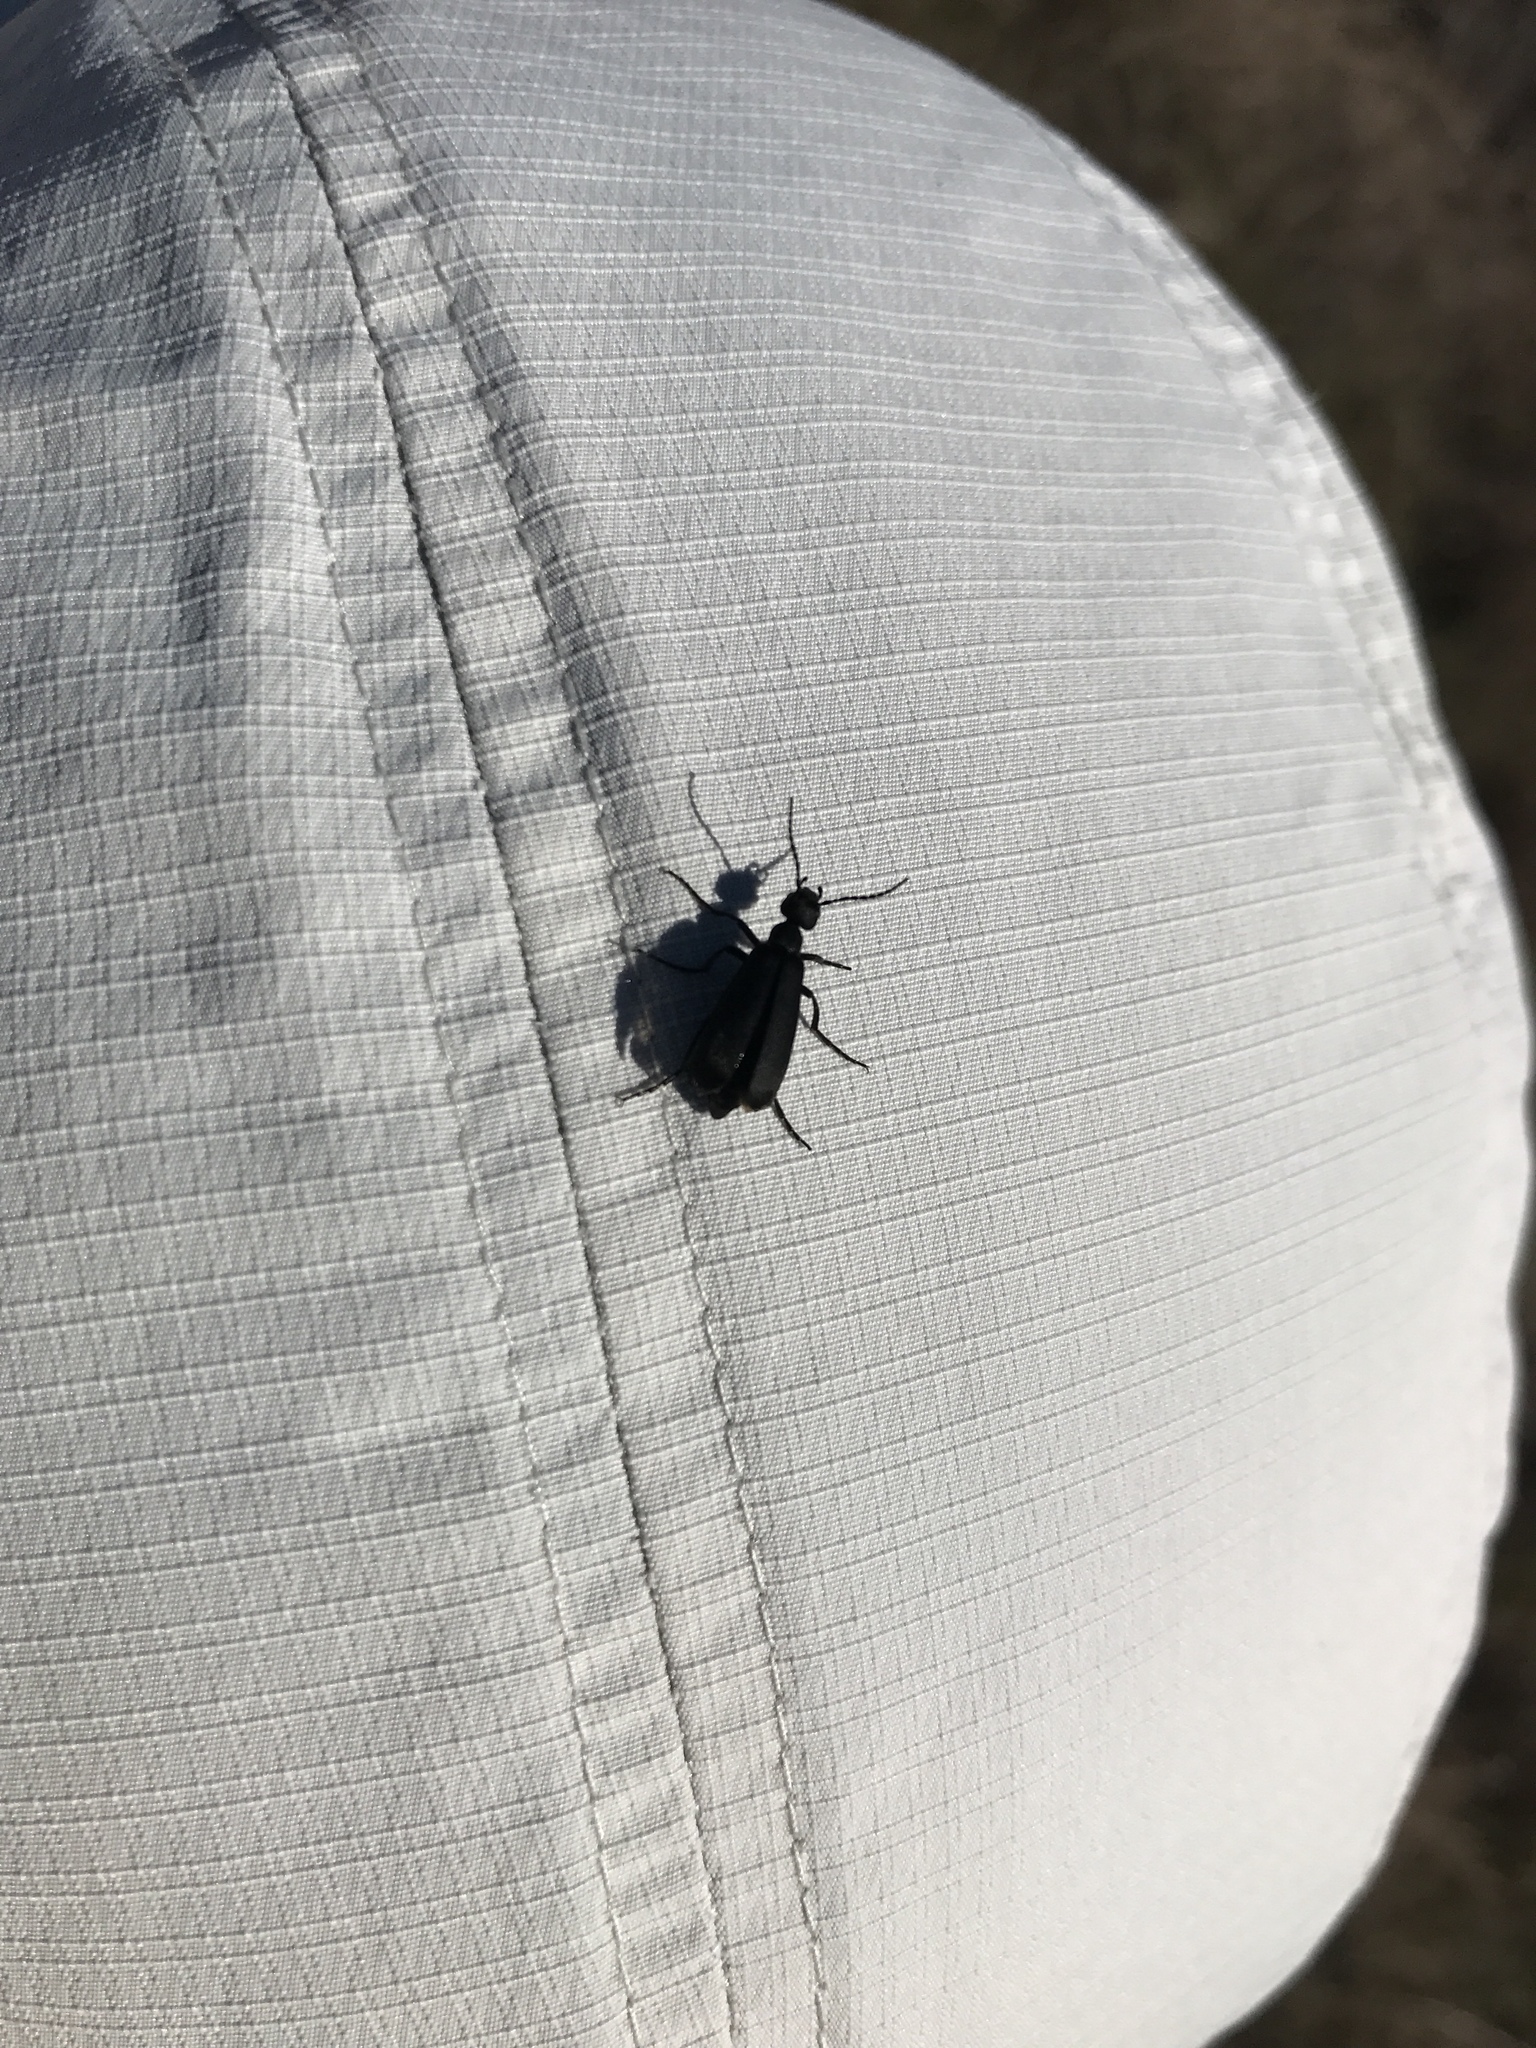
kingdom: Animalia
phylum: Arthropoda
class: Insecta
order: Coleoptera
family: Meloidae
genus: Epicauta
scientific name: Epicauta pensylvanica
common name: Black blister beetle
